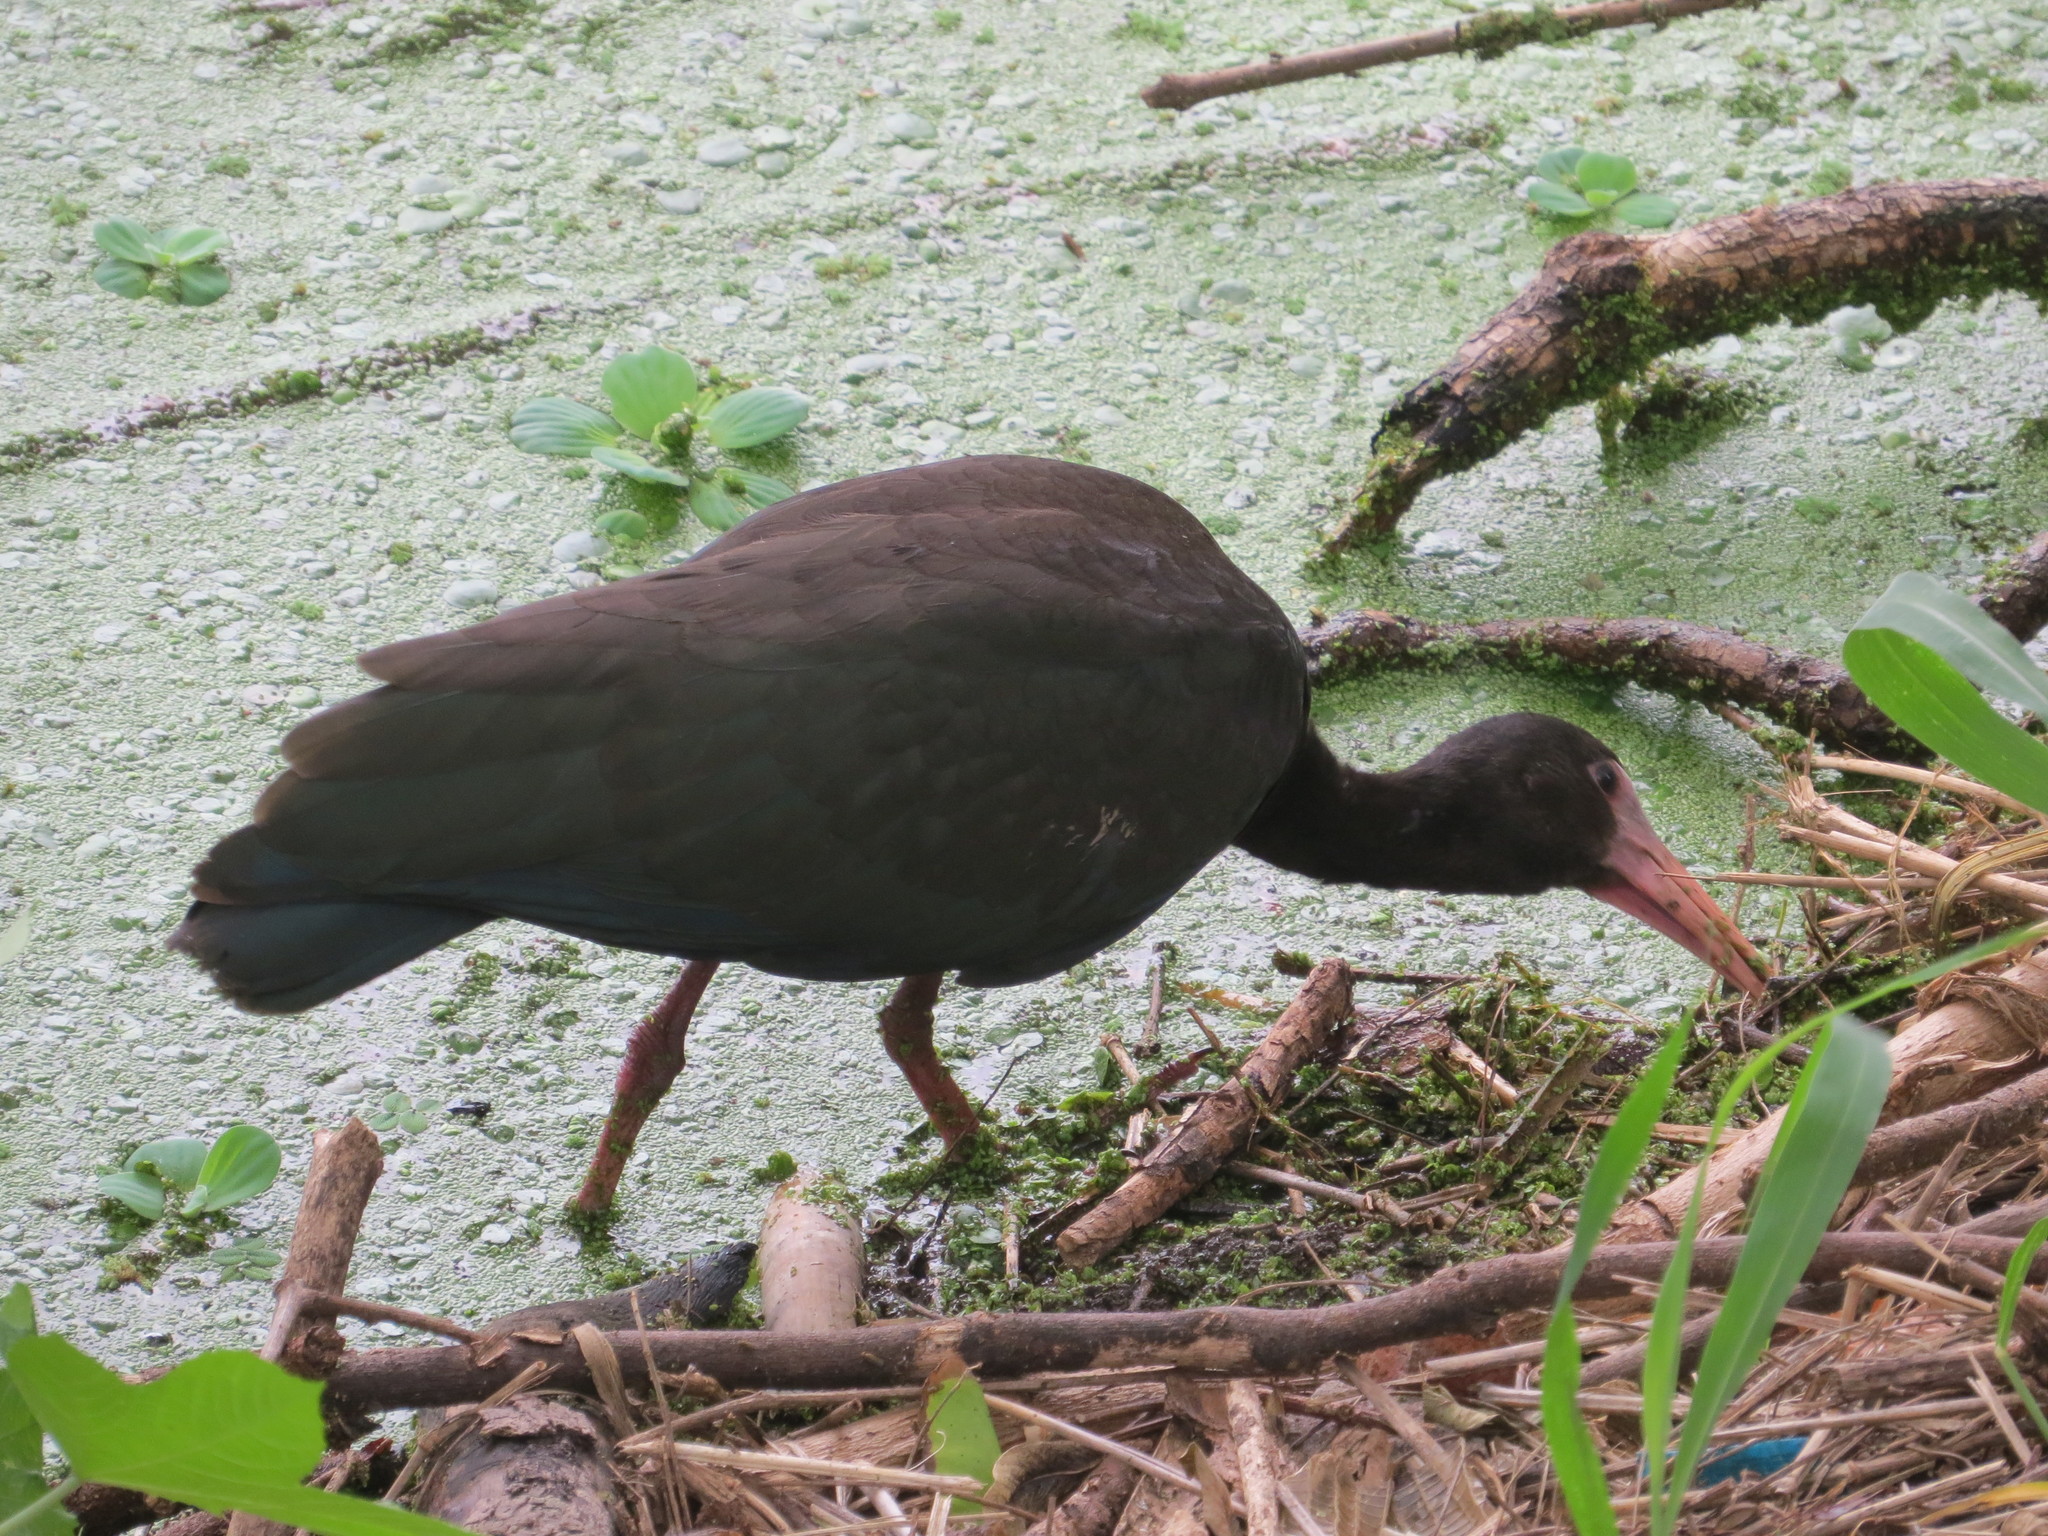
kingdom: Animalia
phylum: Chordata
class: Aves
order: Pelecaniformes
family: Threskiornithidae
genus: Phimosus
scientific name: Phimosus infuscatus
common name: Bare-faced ibis
